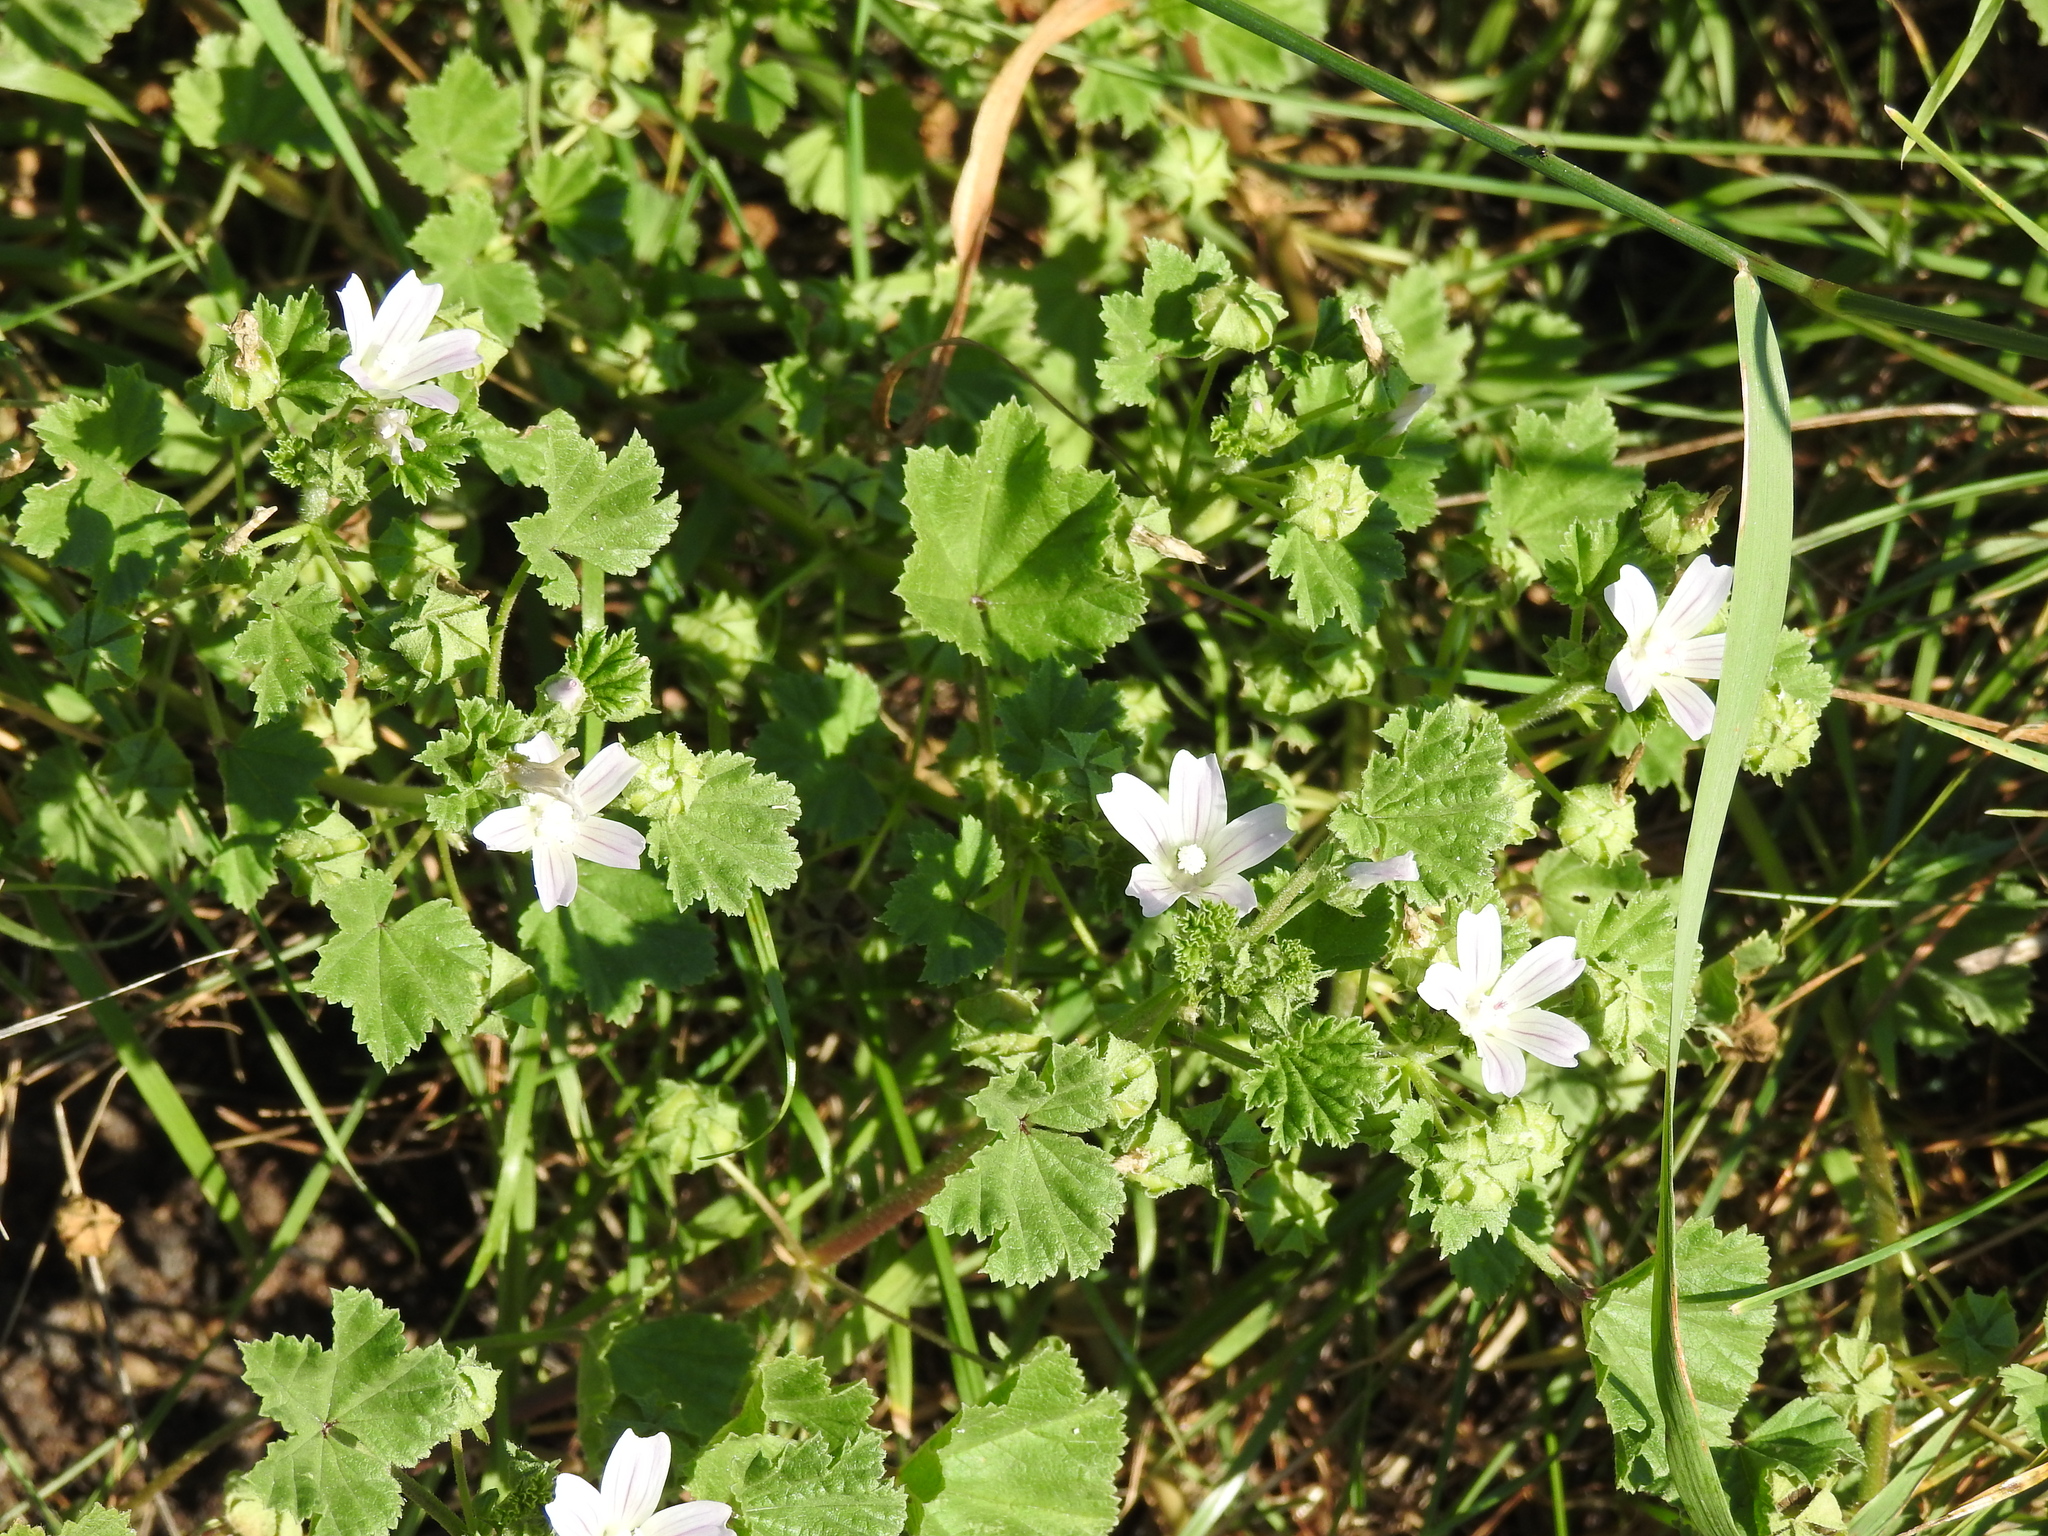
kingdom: Plantae
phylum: Tracheophyta
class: Magnoliopsida
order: Malvales
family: Malvaceae
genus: Malva
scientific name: Malva neglecta
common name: Common mallow
